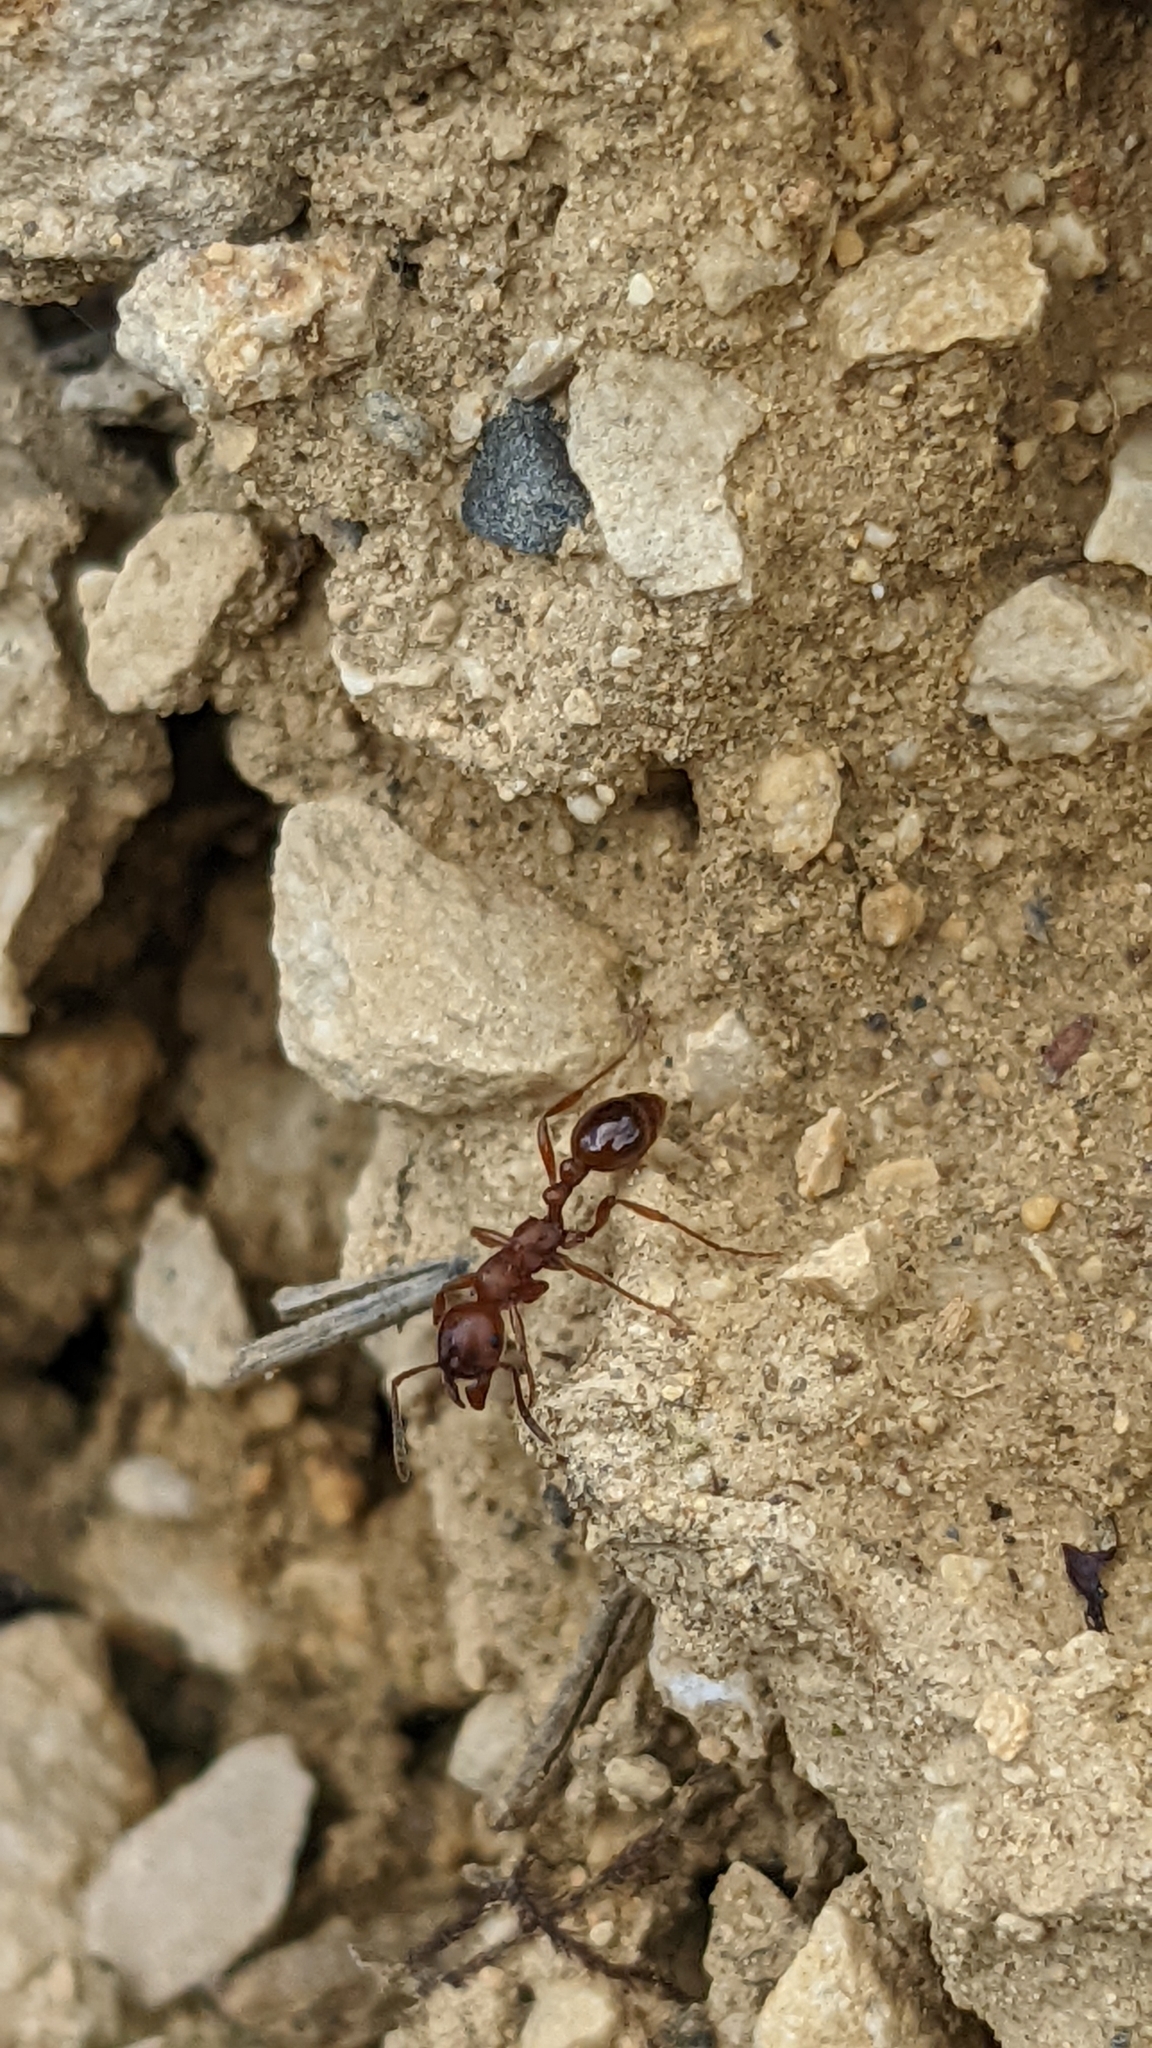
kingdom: Animalia
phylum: Arthropoda
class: Insecta
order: Hymenoptera
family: Formicidae
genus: Manica
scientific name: Manica rubida
